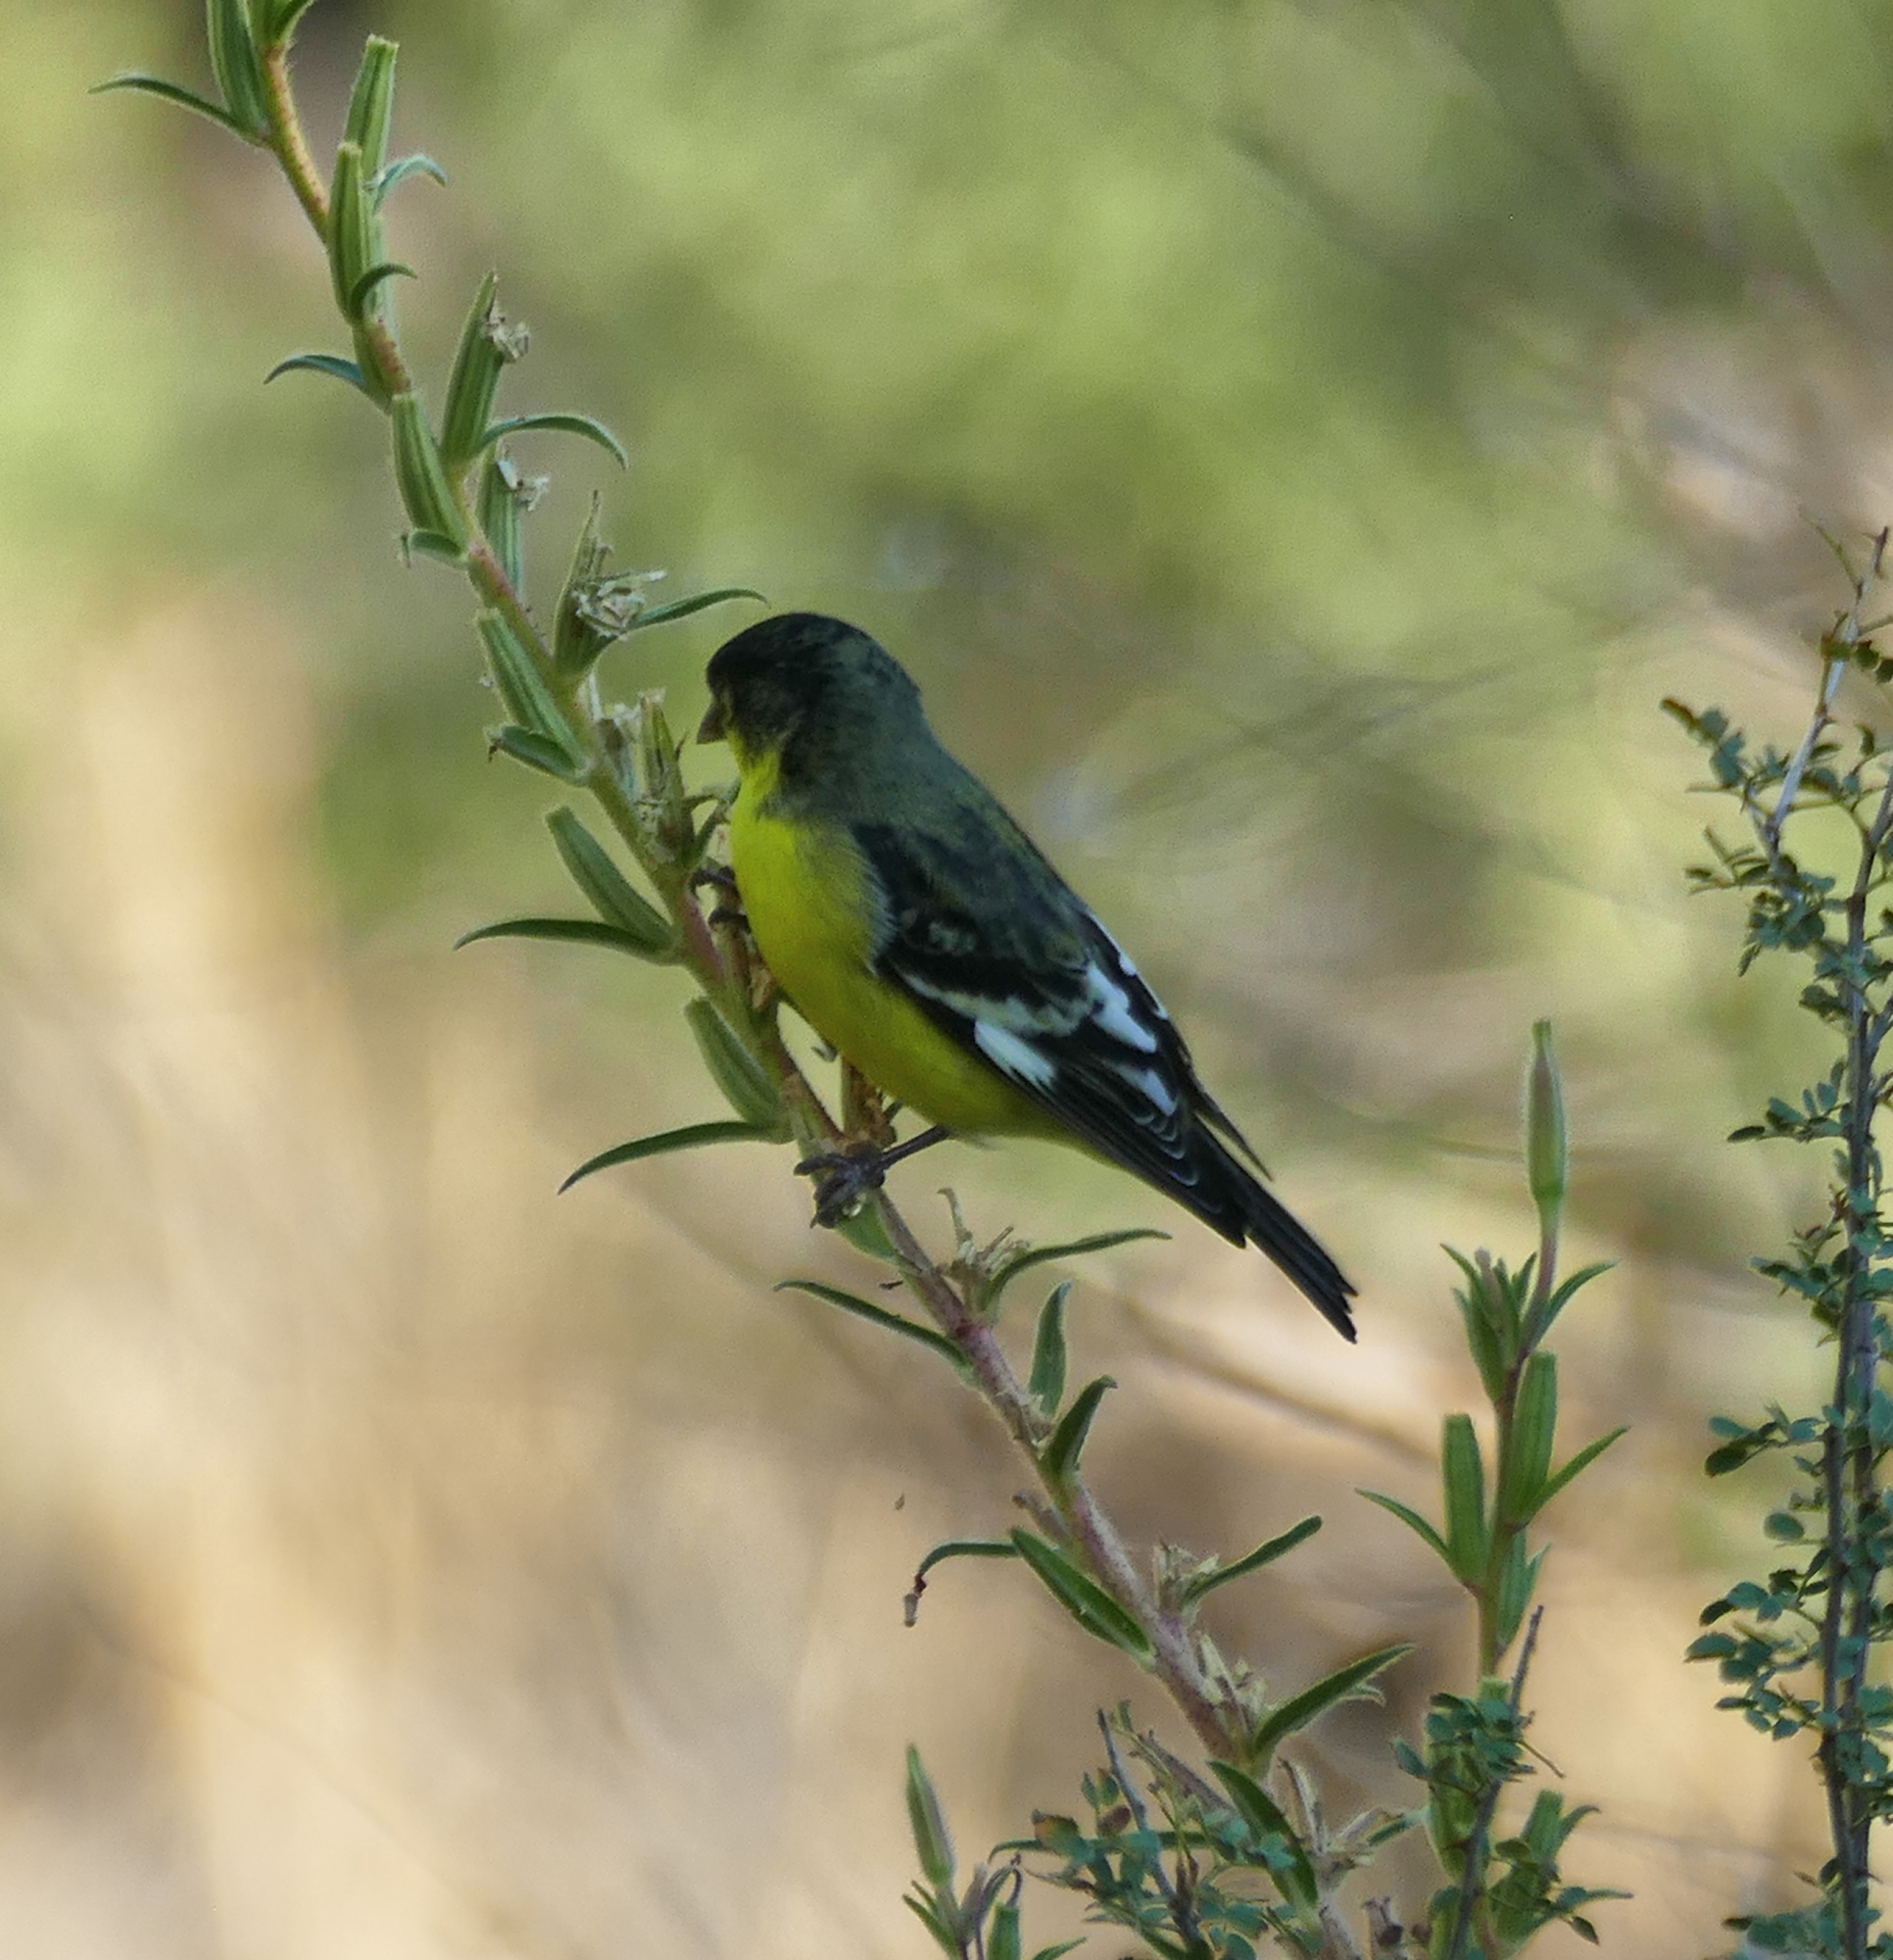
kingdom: Animalia
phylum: Chordata
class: Aves
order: Passeriformes
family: Fringillidae
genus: Spinus
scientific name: Spinus psaltria
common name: Lesser goldfinch
